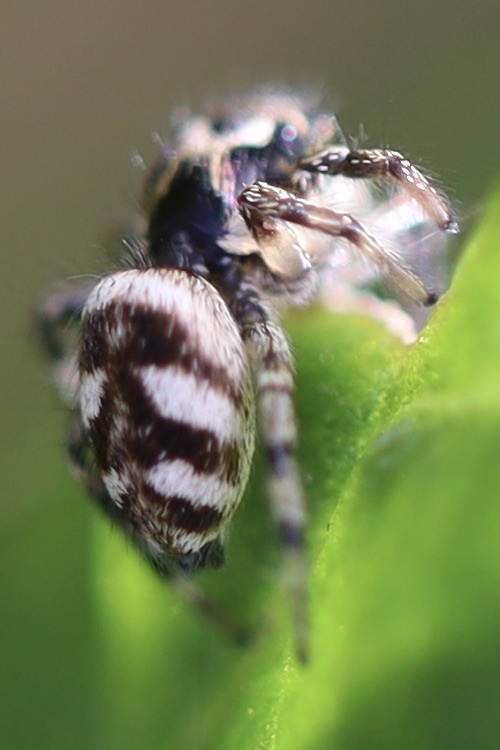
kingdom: Animalia
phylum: Arthropoda
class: Arachnida
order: Araneae
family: Salticidae
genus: Salticus
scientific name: Salticus scenicus
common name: Zebra jumper
